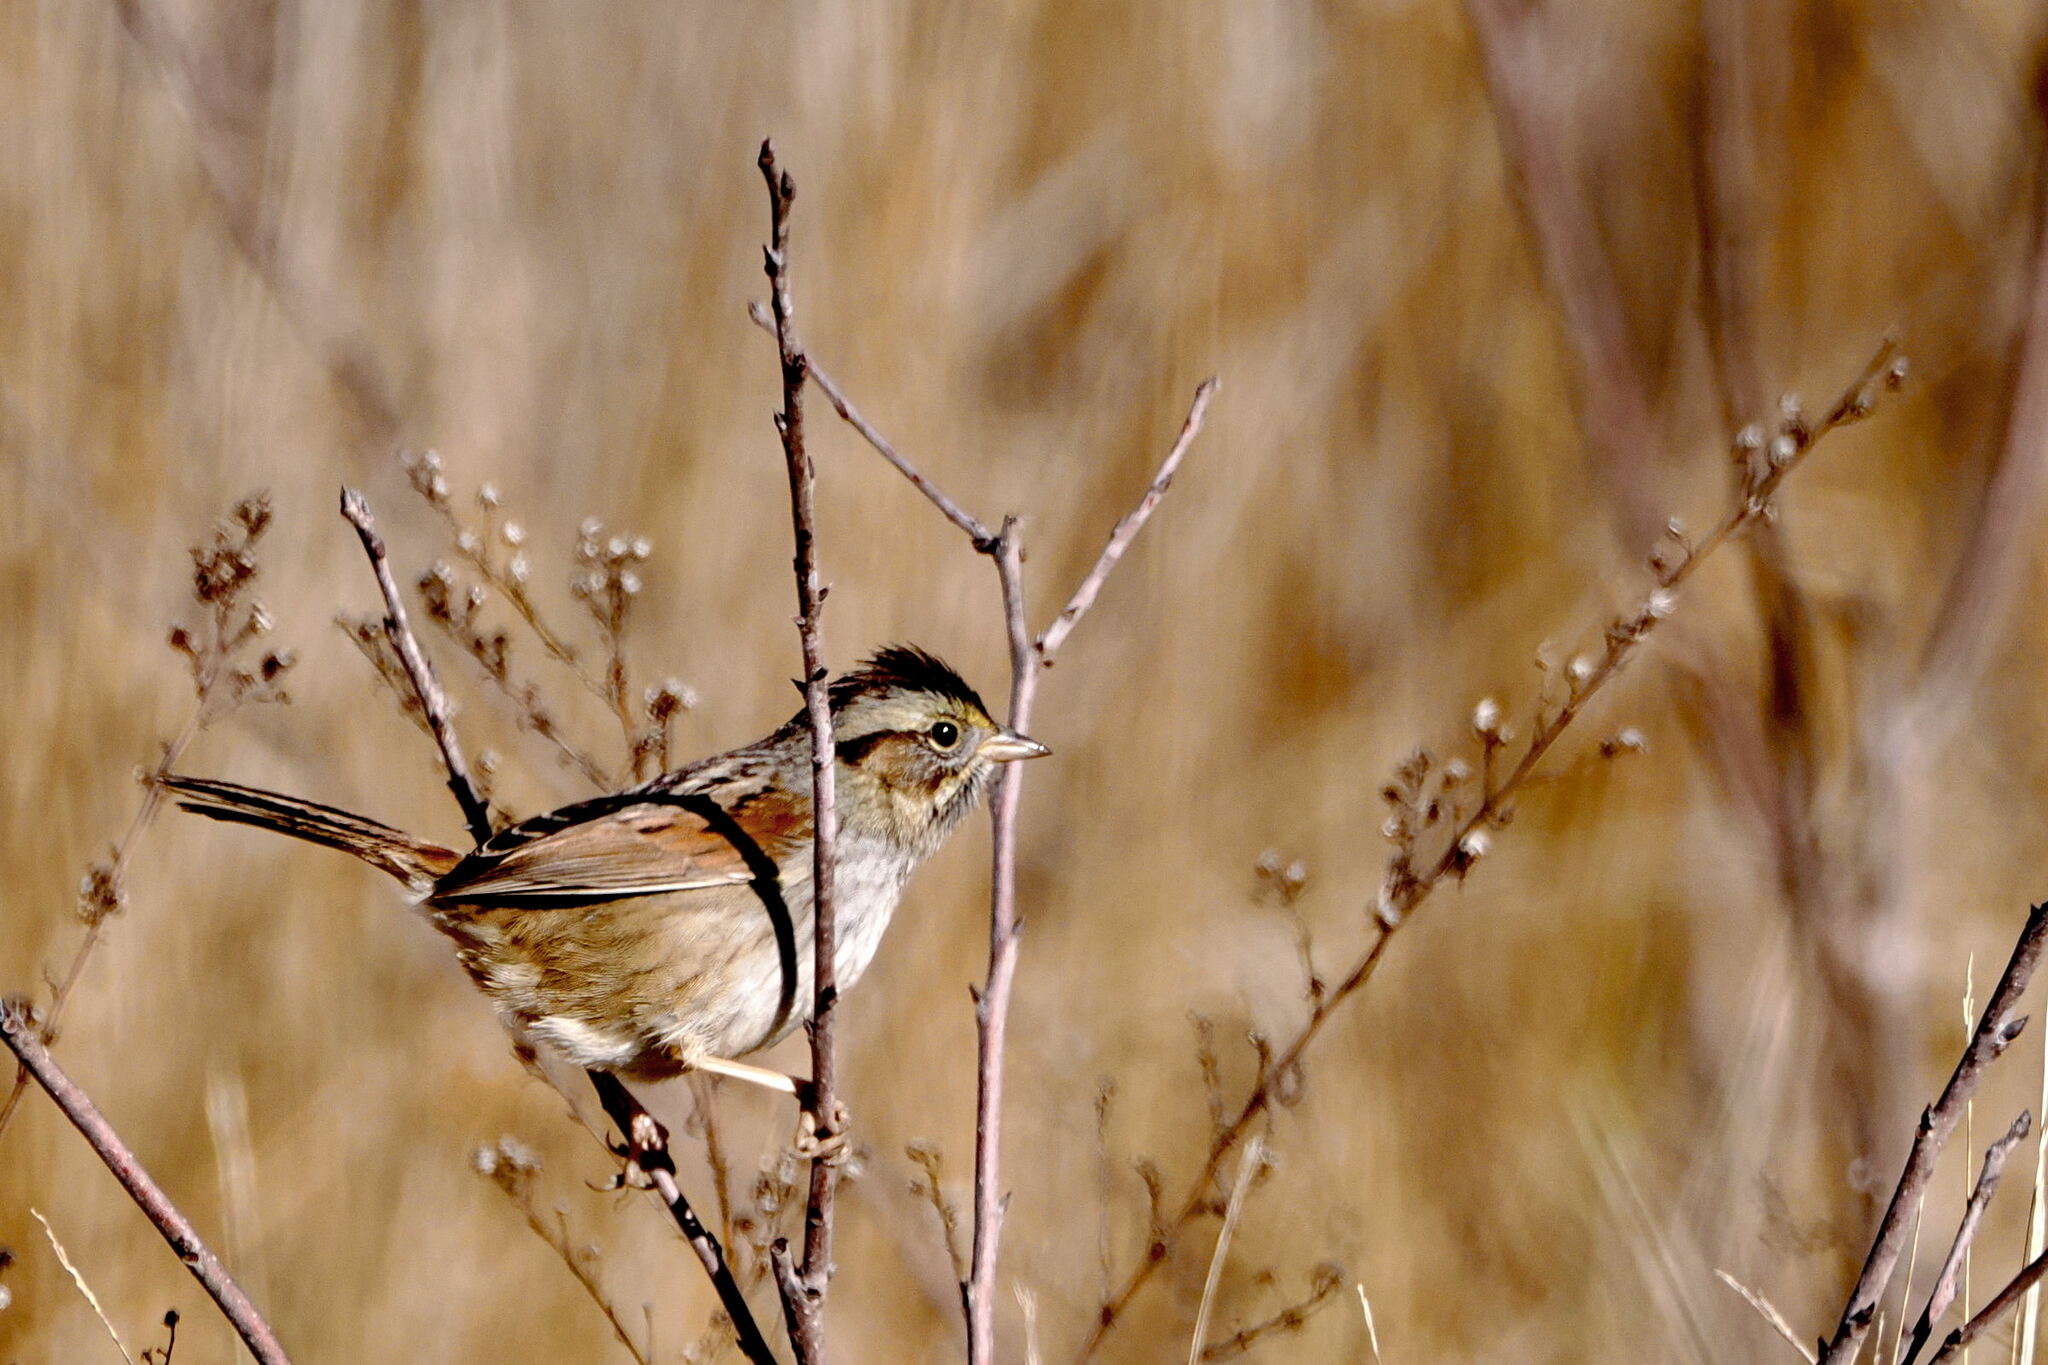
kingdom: Animalia
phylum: Chordata
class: Aves
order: Passeriformes
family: Passerellidae
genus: Melospiza
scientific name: Melospiza georgiana
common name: Swamp sparrow
